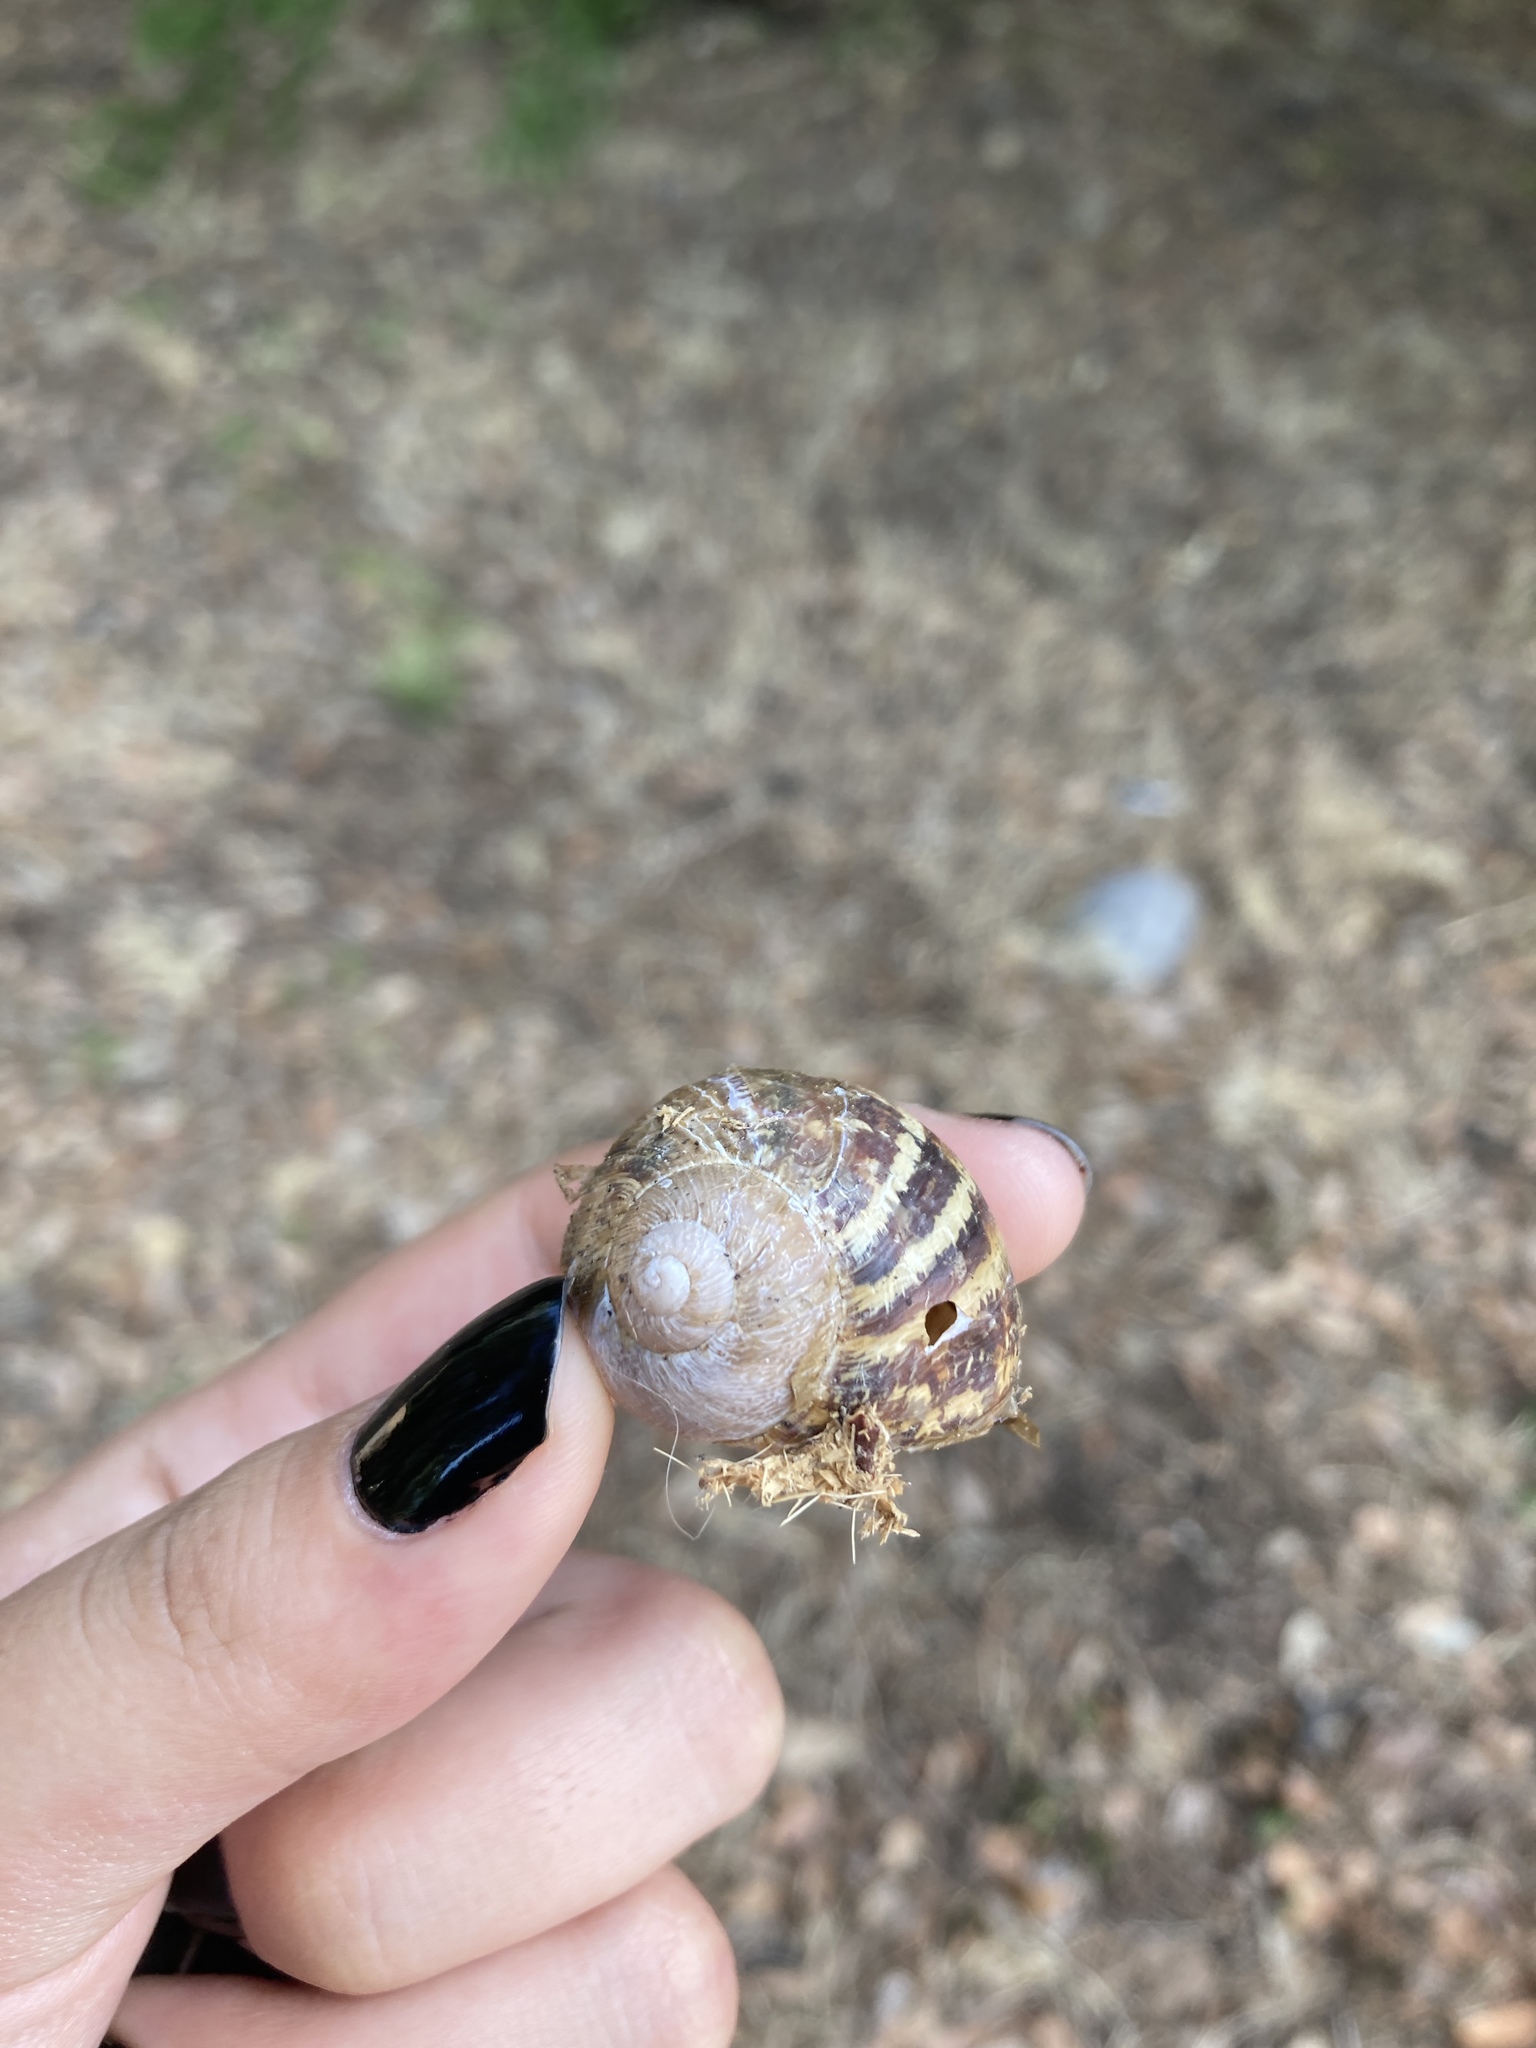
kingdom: Animalia
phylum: Mollusca
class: Gastropoda
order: Stylommatophora
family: Helicidae
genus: Cornu
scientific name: Cornu aspersum
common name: Brown garden snail
